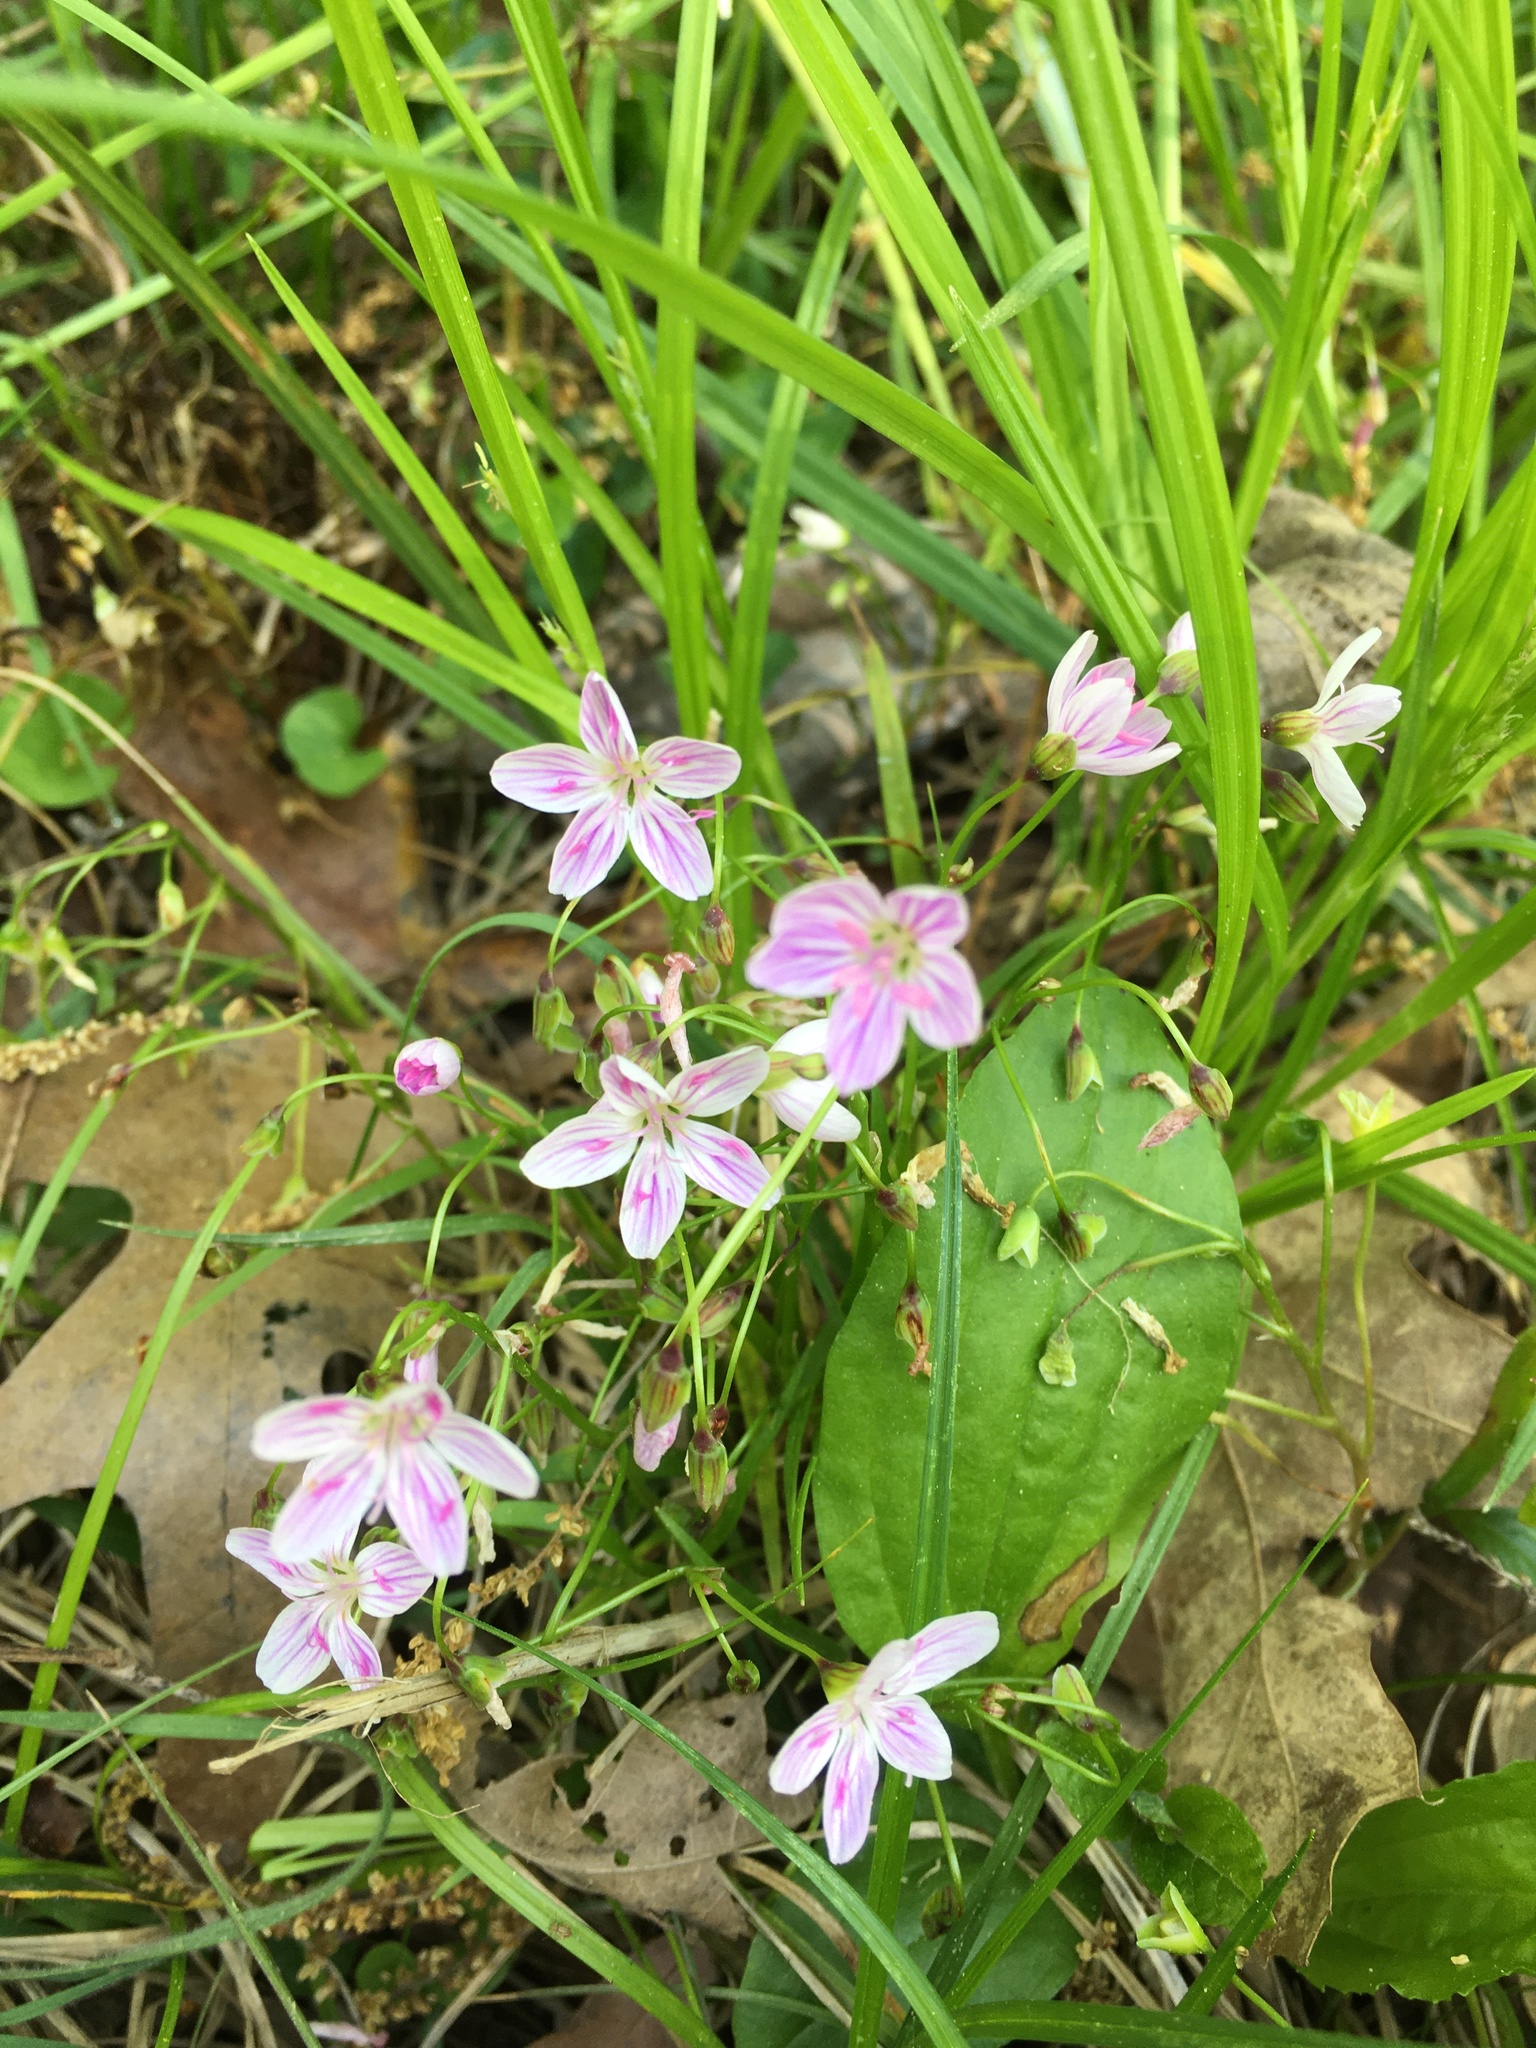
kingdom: Plantae
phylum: Tracheophyta
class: Magnoliopsida
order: Caryophyllales
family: Montiaceae
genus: Claytonia
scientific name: Claytonia virginica
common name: Virginia springbeauty
